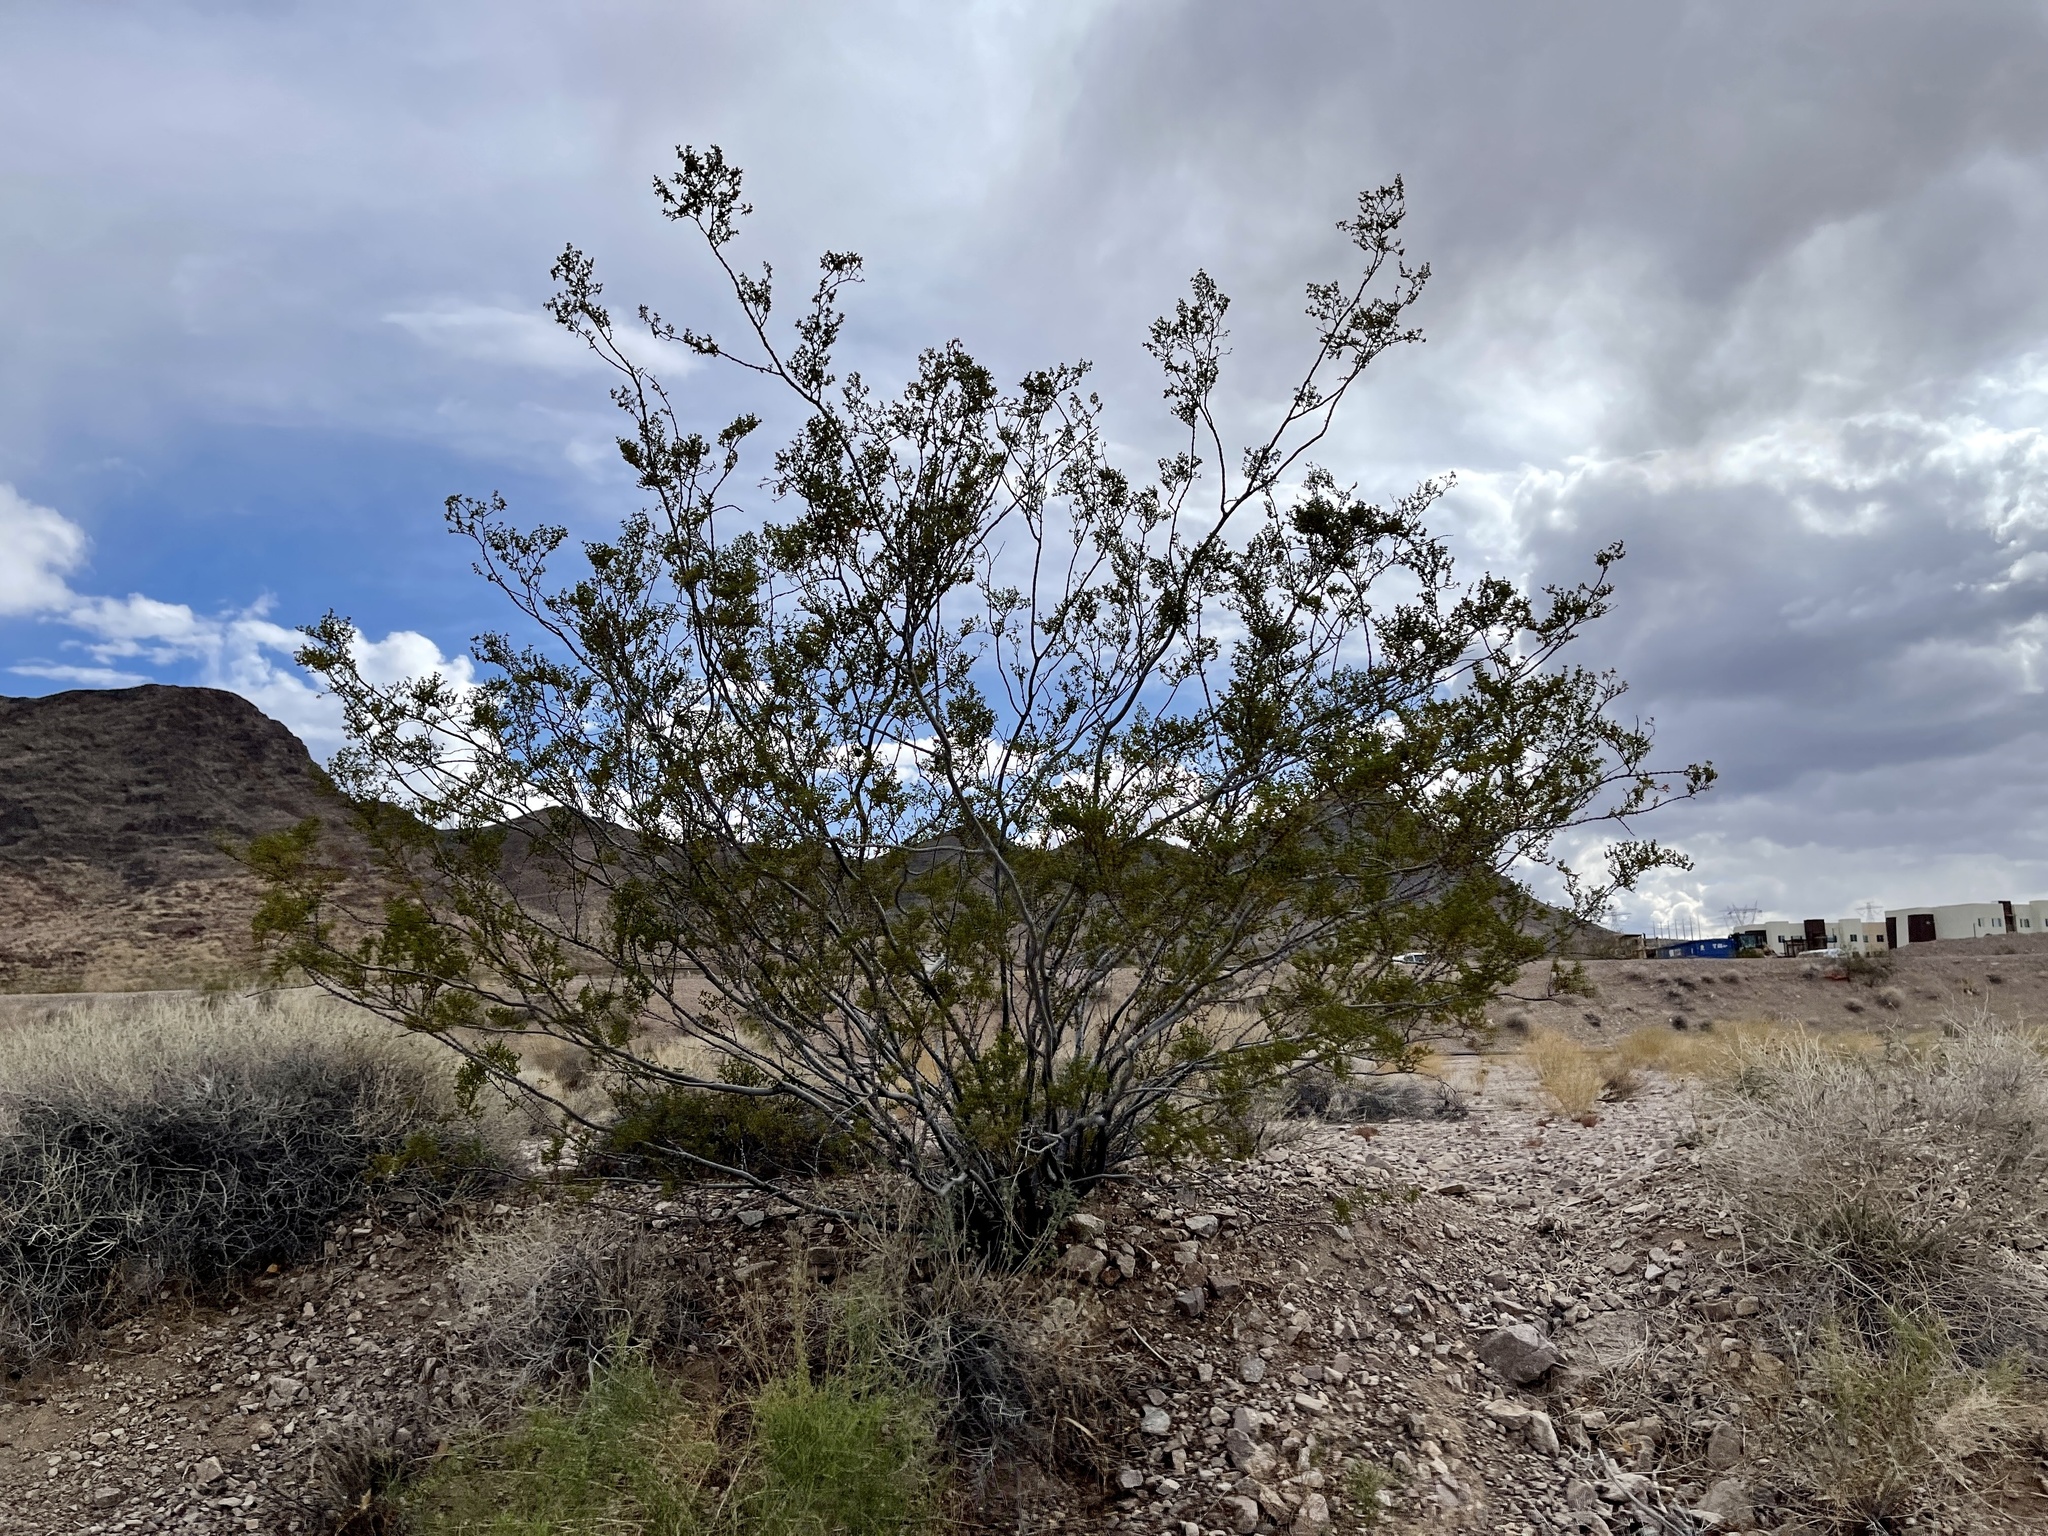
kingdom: Plantae
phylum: Tracheophyta
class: Magnoliopsida
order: Zygophyllales
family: Zygophyllaceae
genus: Larrea
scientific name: Larrea tridentata
